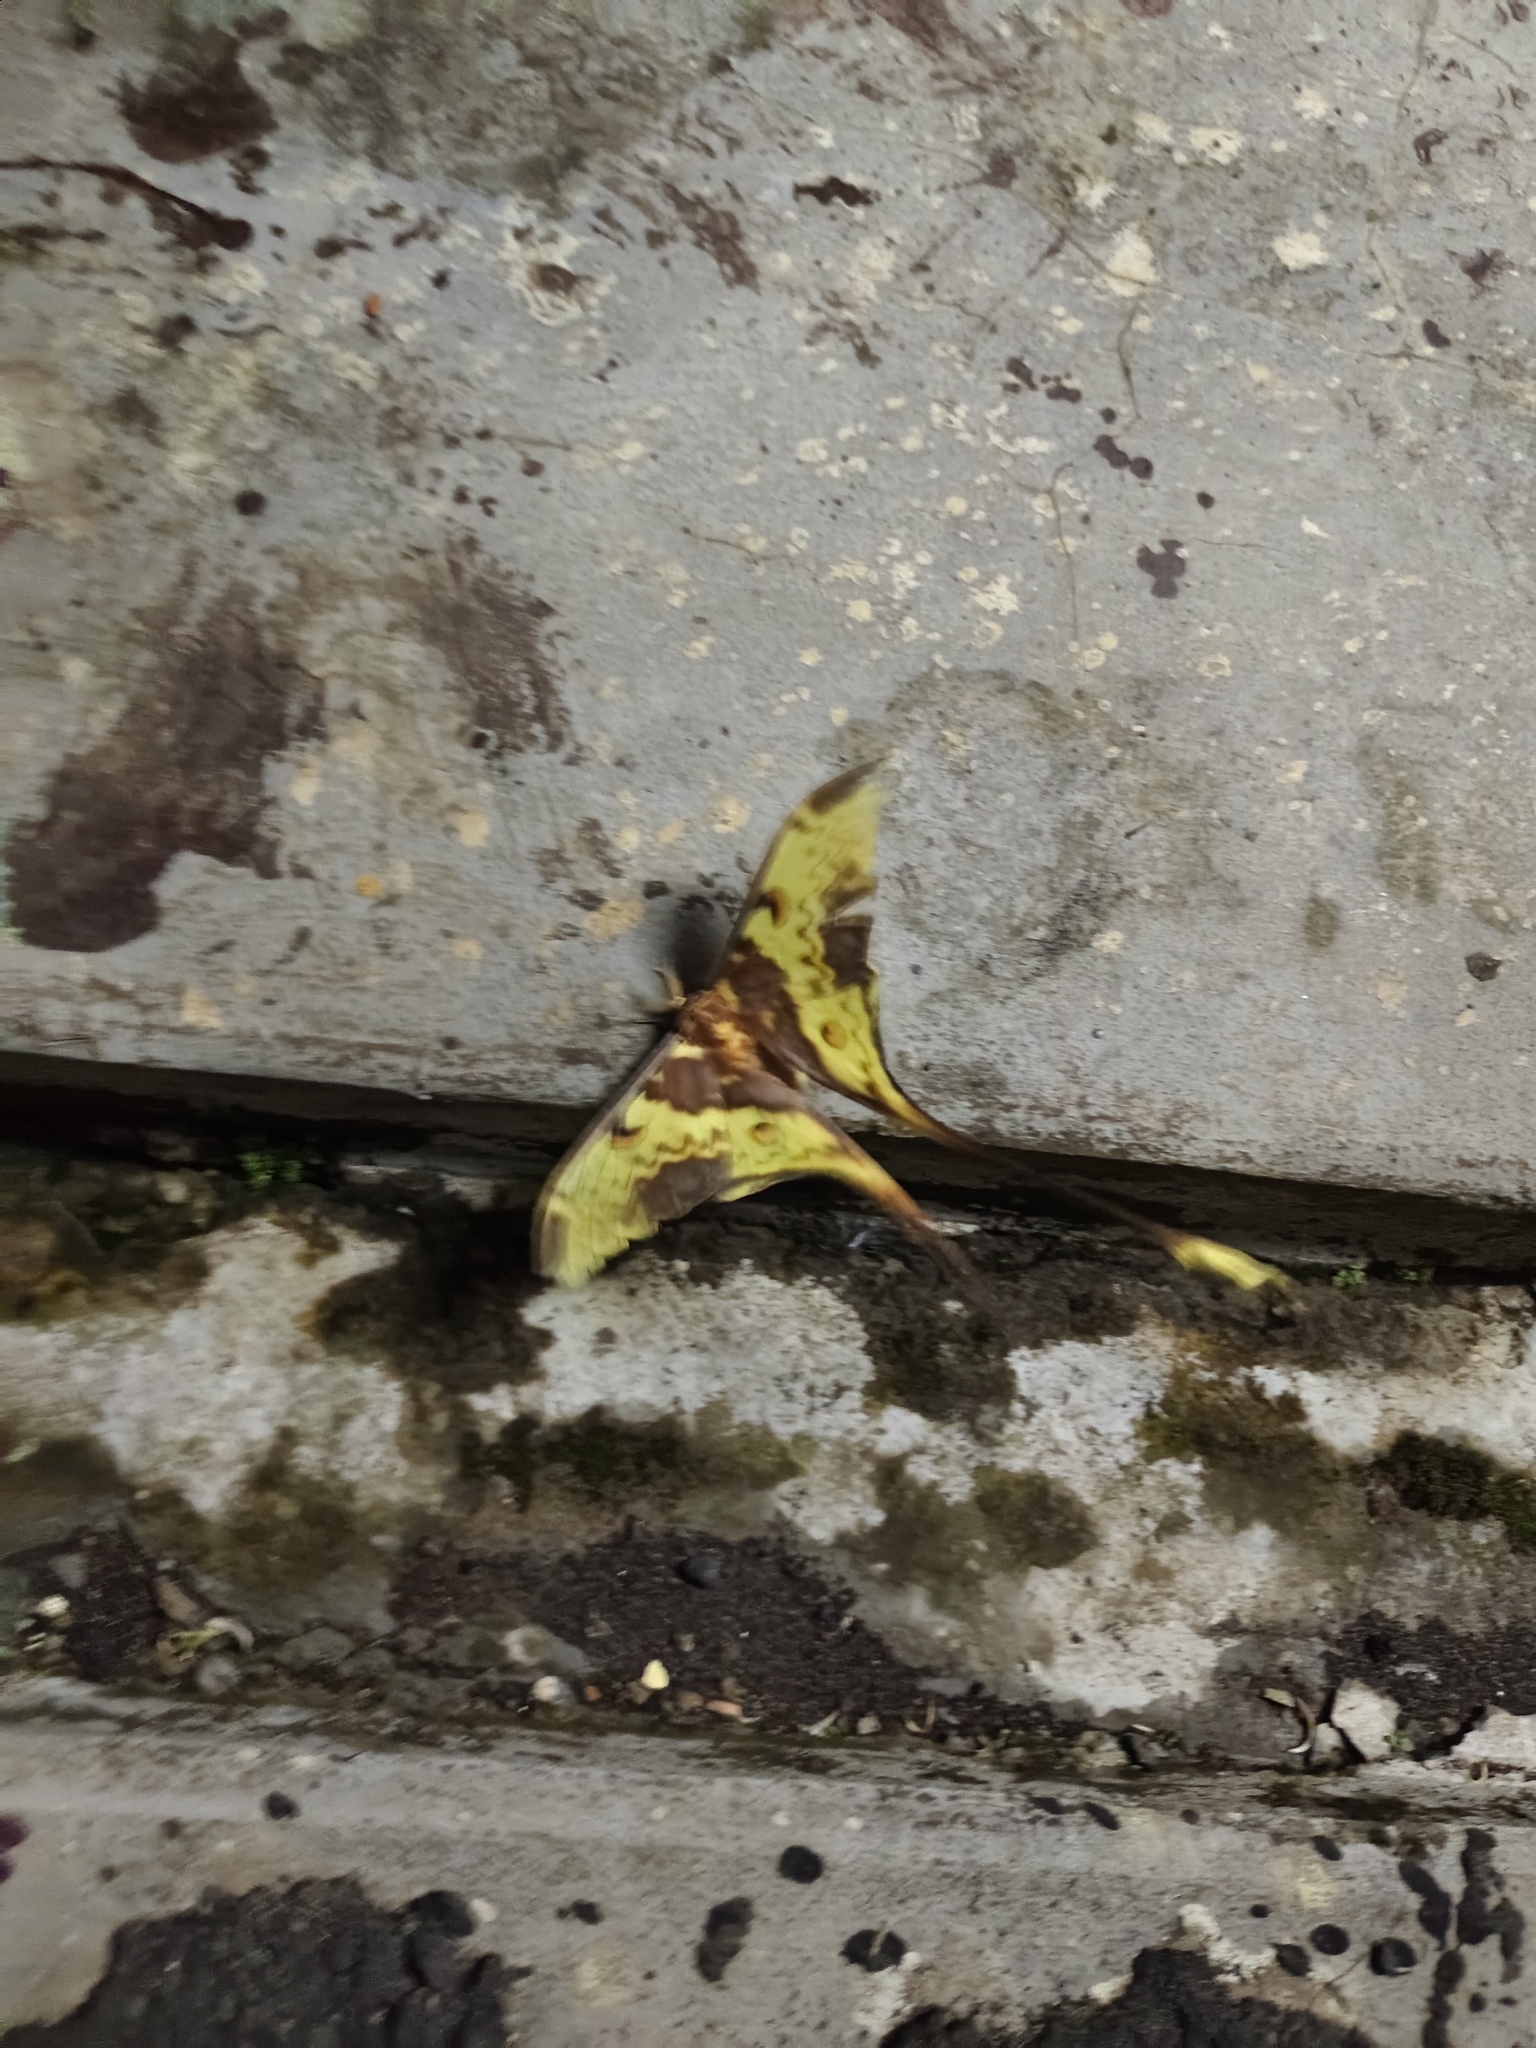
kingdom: Animalia
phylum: Arthropoda
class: Insecta
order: Lepidoptera
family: Saturniidae
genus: Actias
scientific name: Actias maenas
